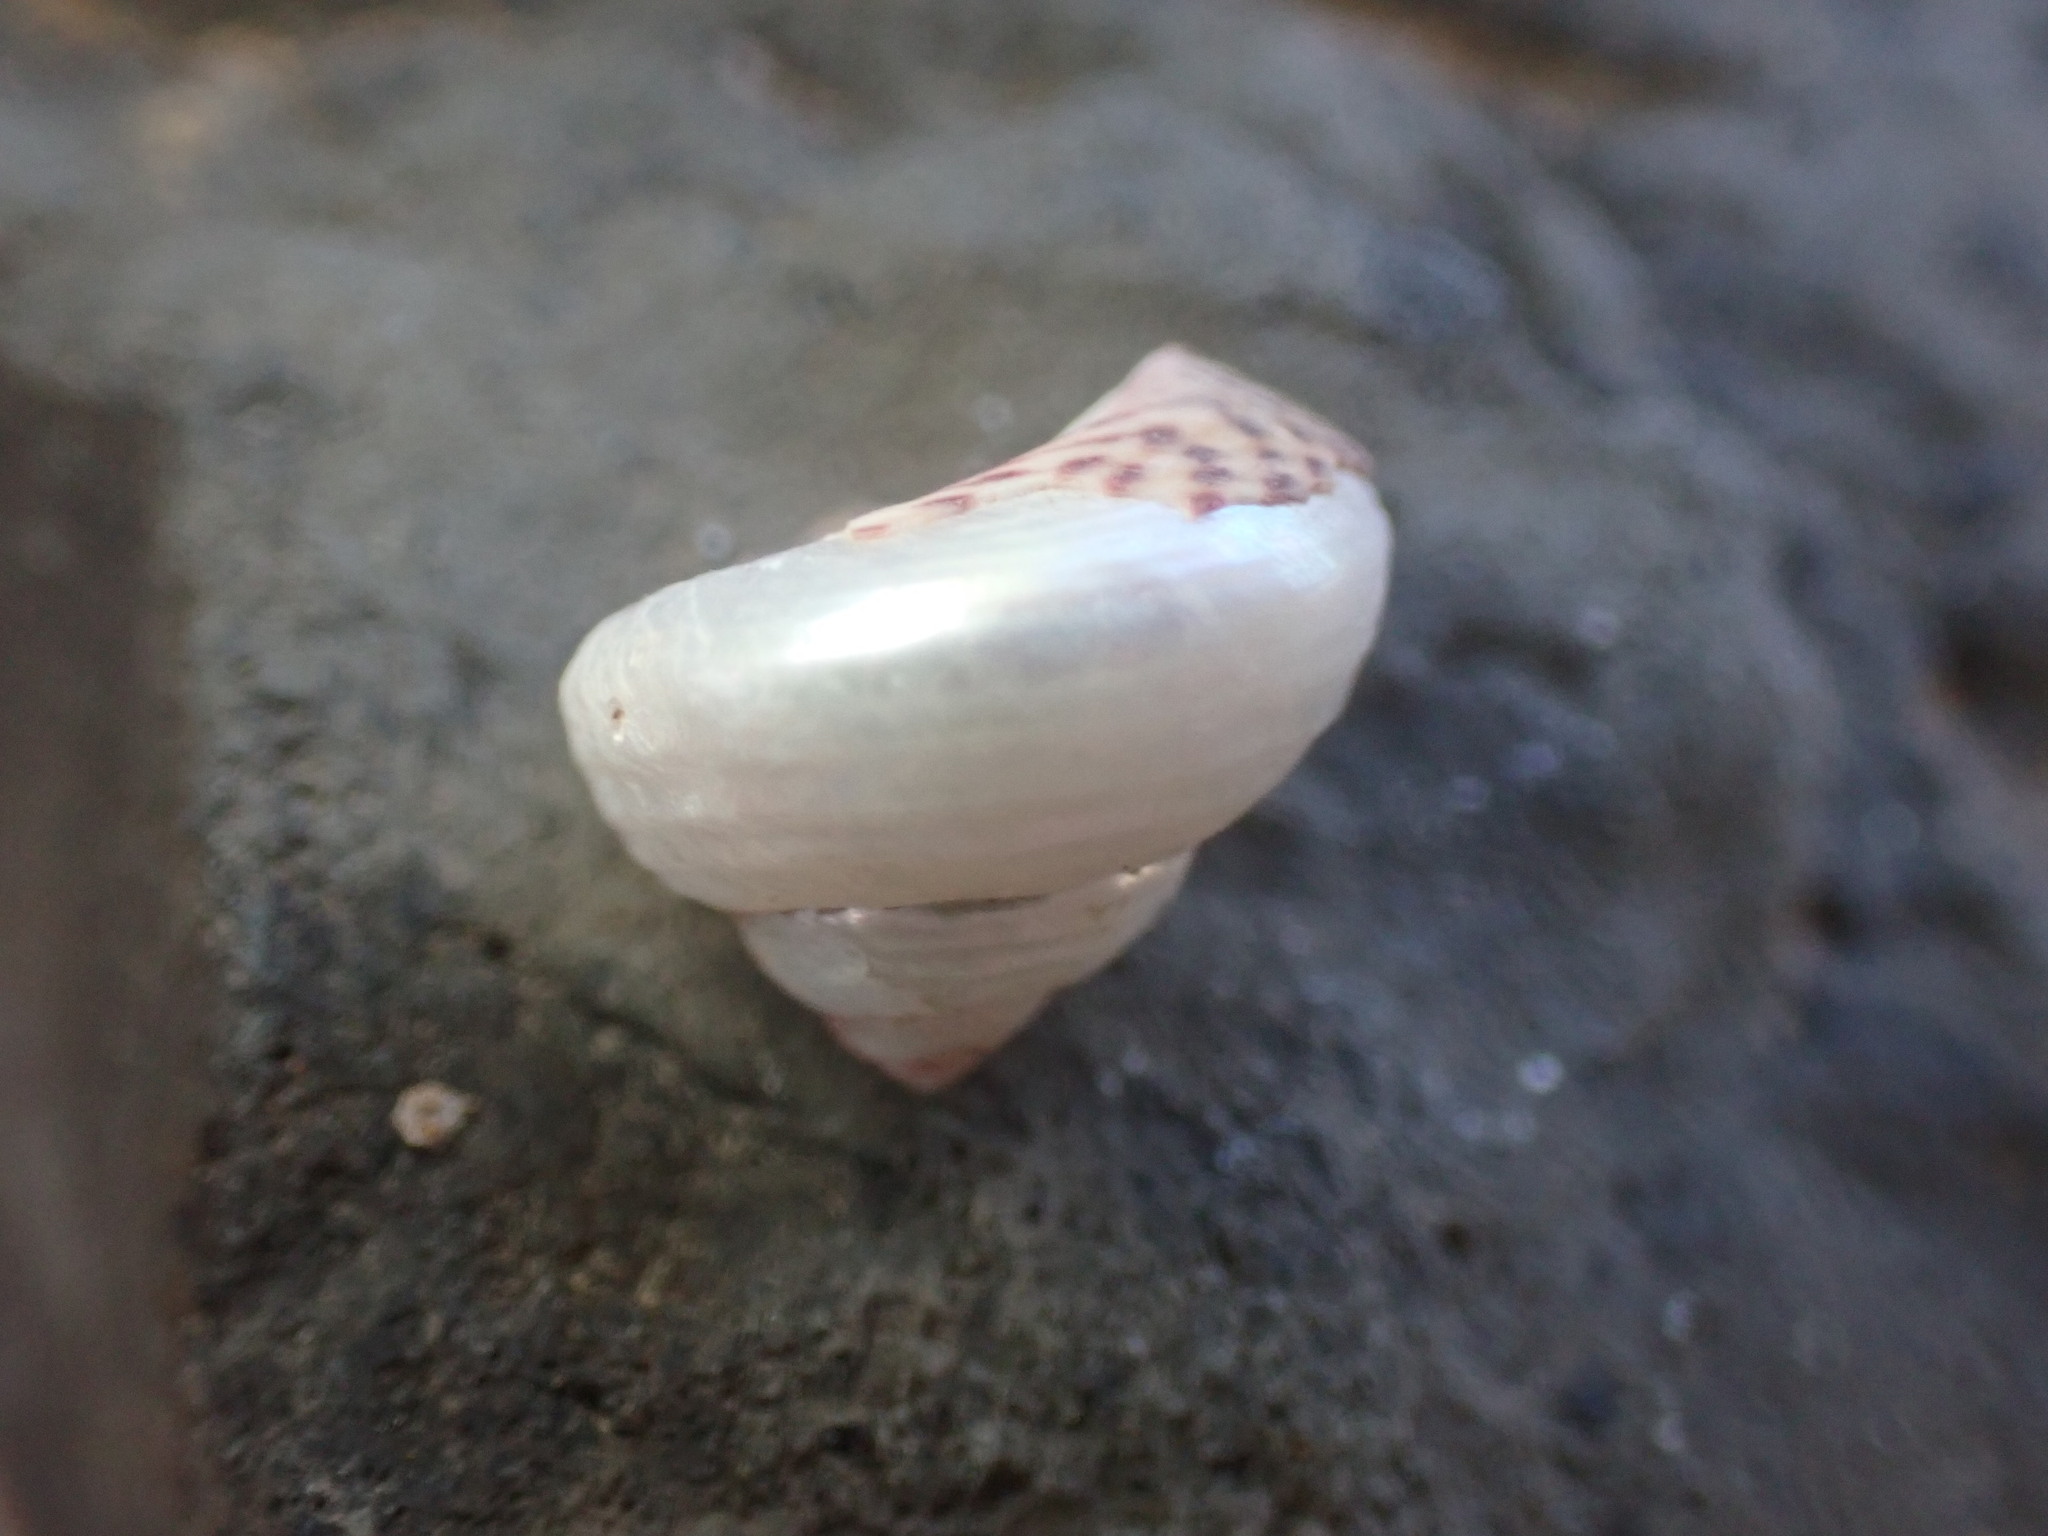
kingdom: Animalia
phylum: Mollusca
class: Gastropoda
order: Trochida
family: Trochidae
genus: Phorcus
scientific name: Phorcus sauciatus
